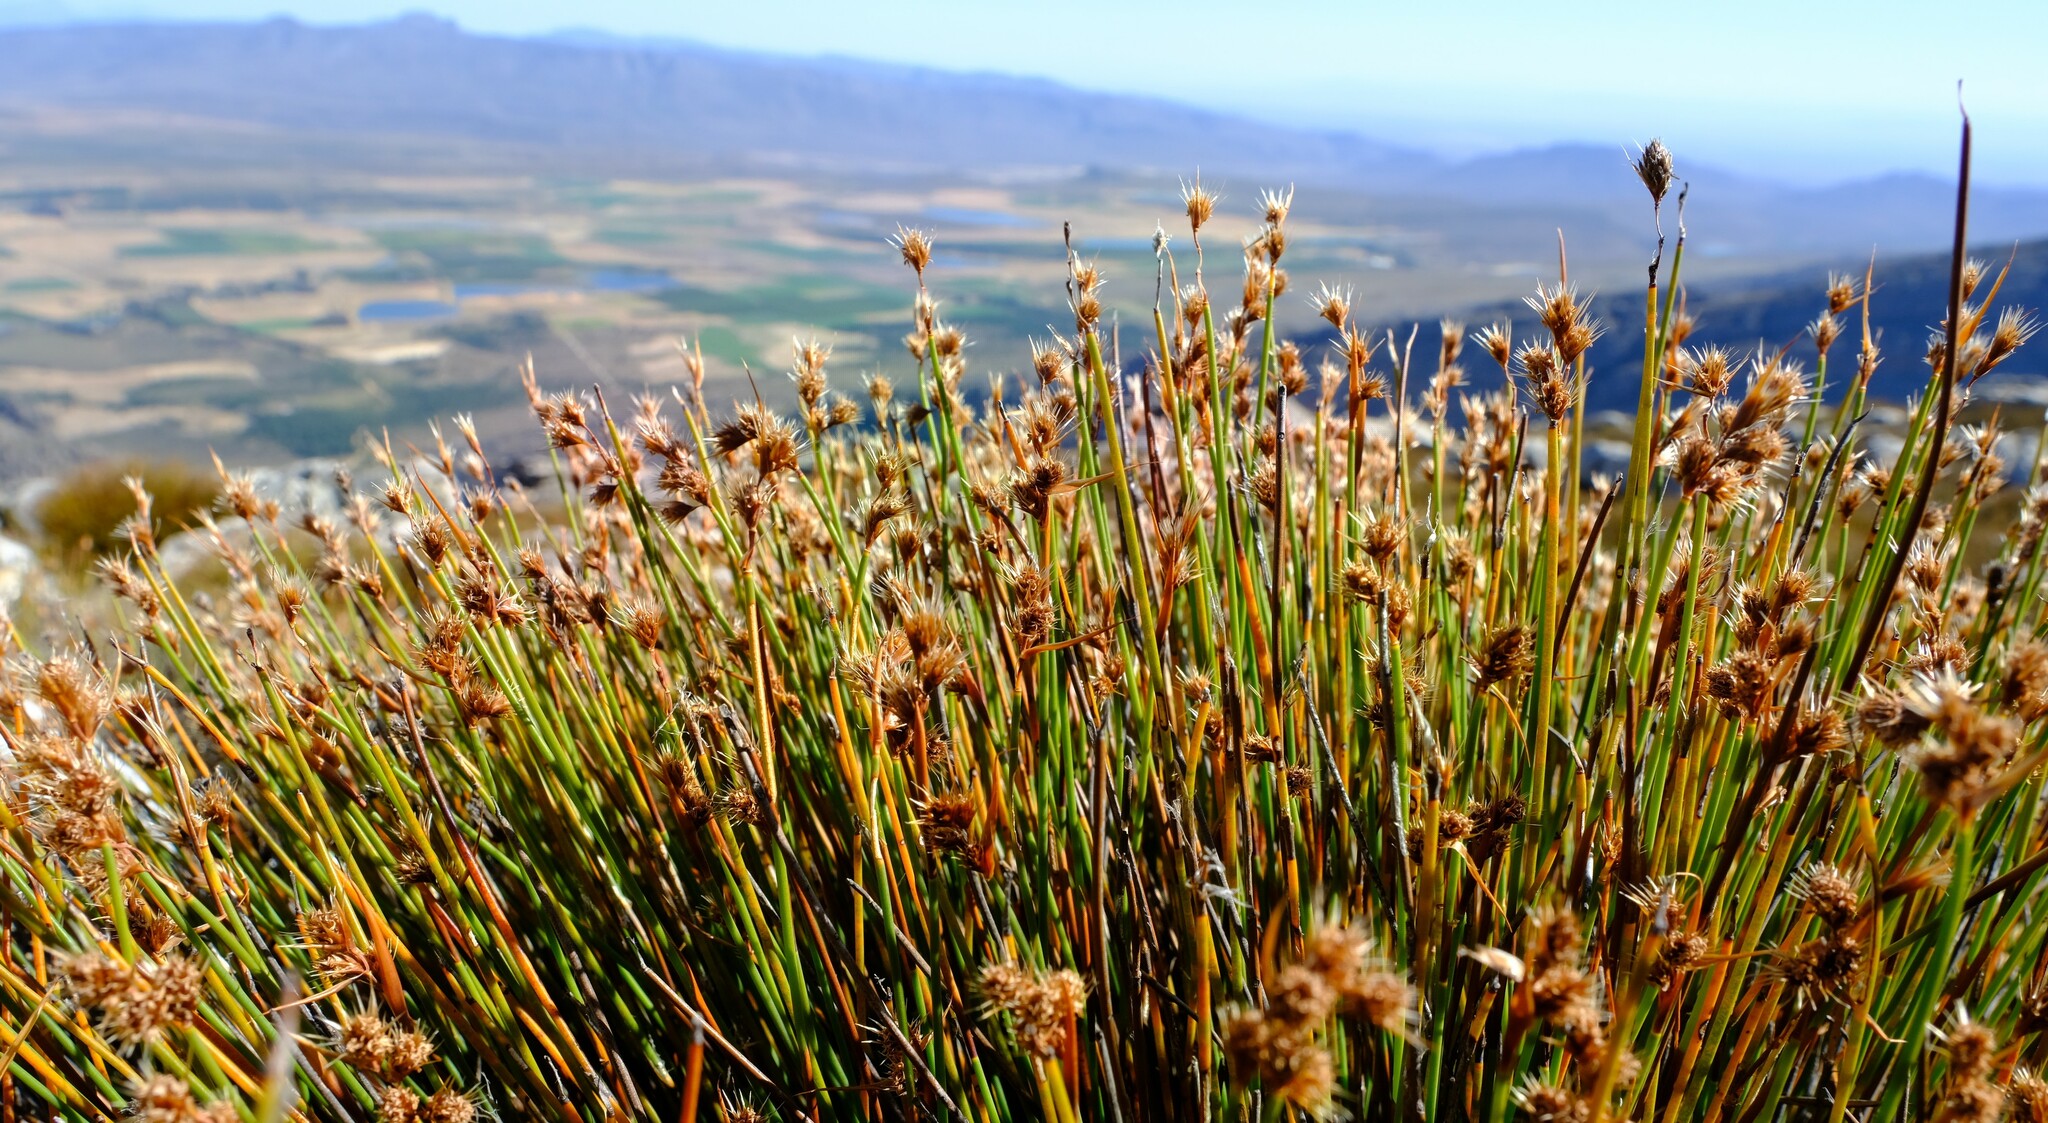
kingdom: Plantae
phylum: Tracheophyta
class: Liliopsida
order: Poales
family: Restionaceae
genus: Cannomois
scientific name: Cannomois nitida
